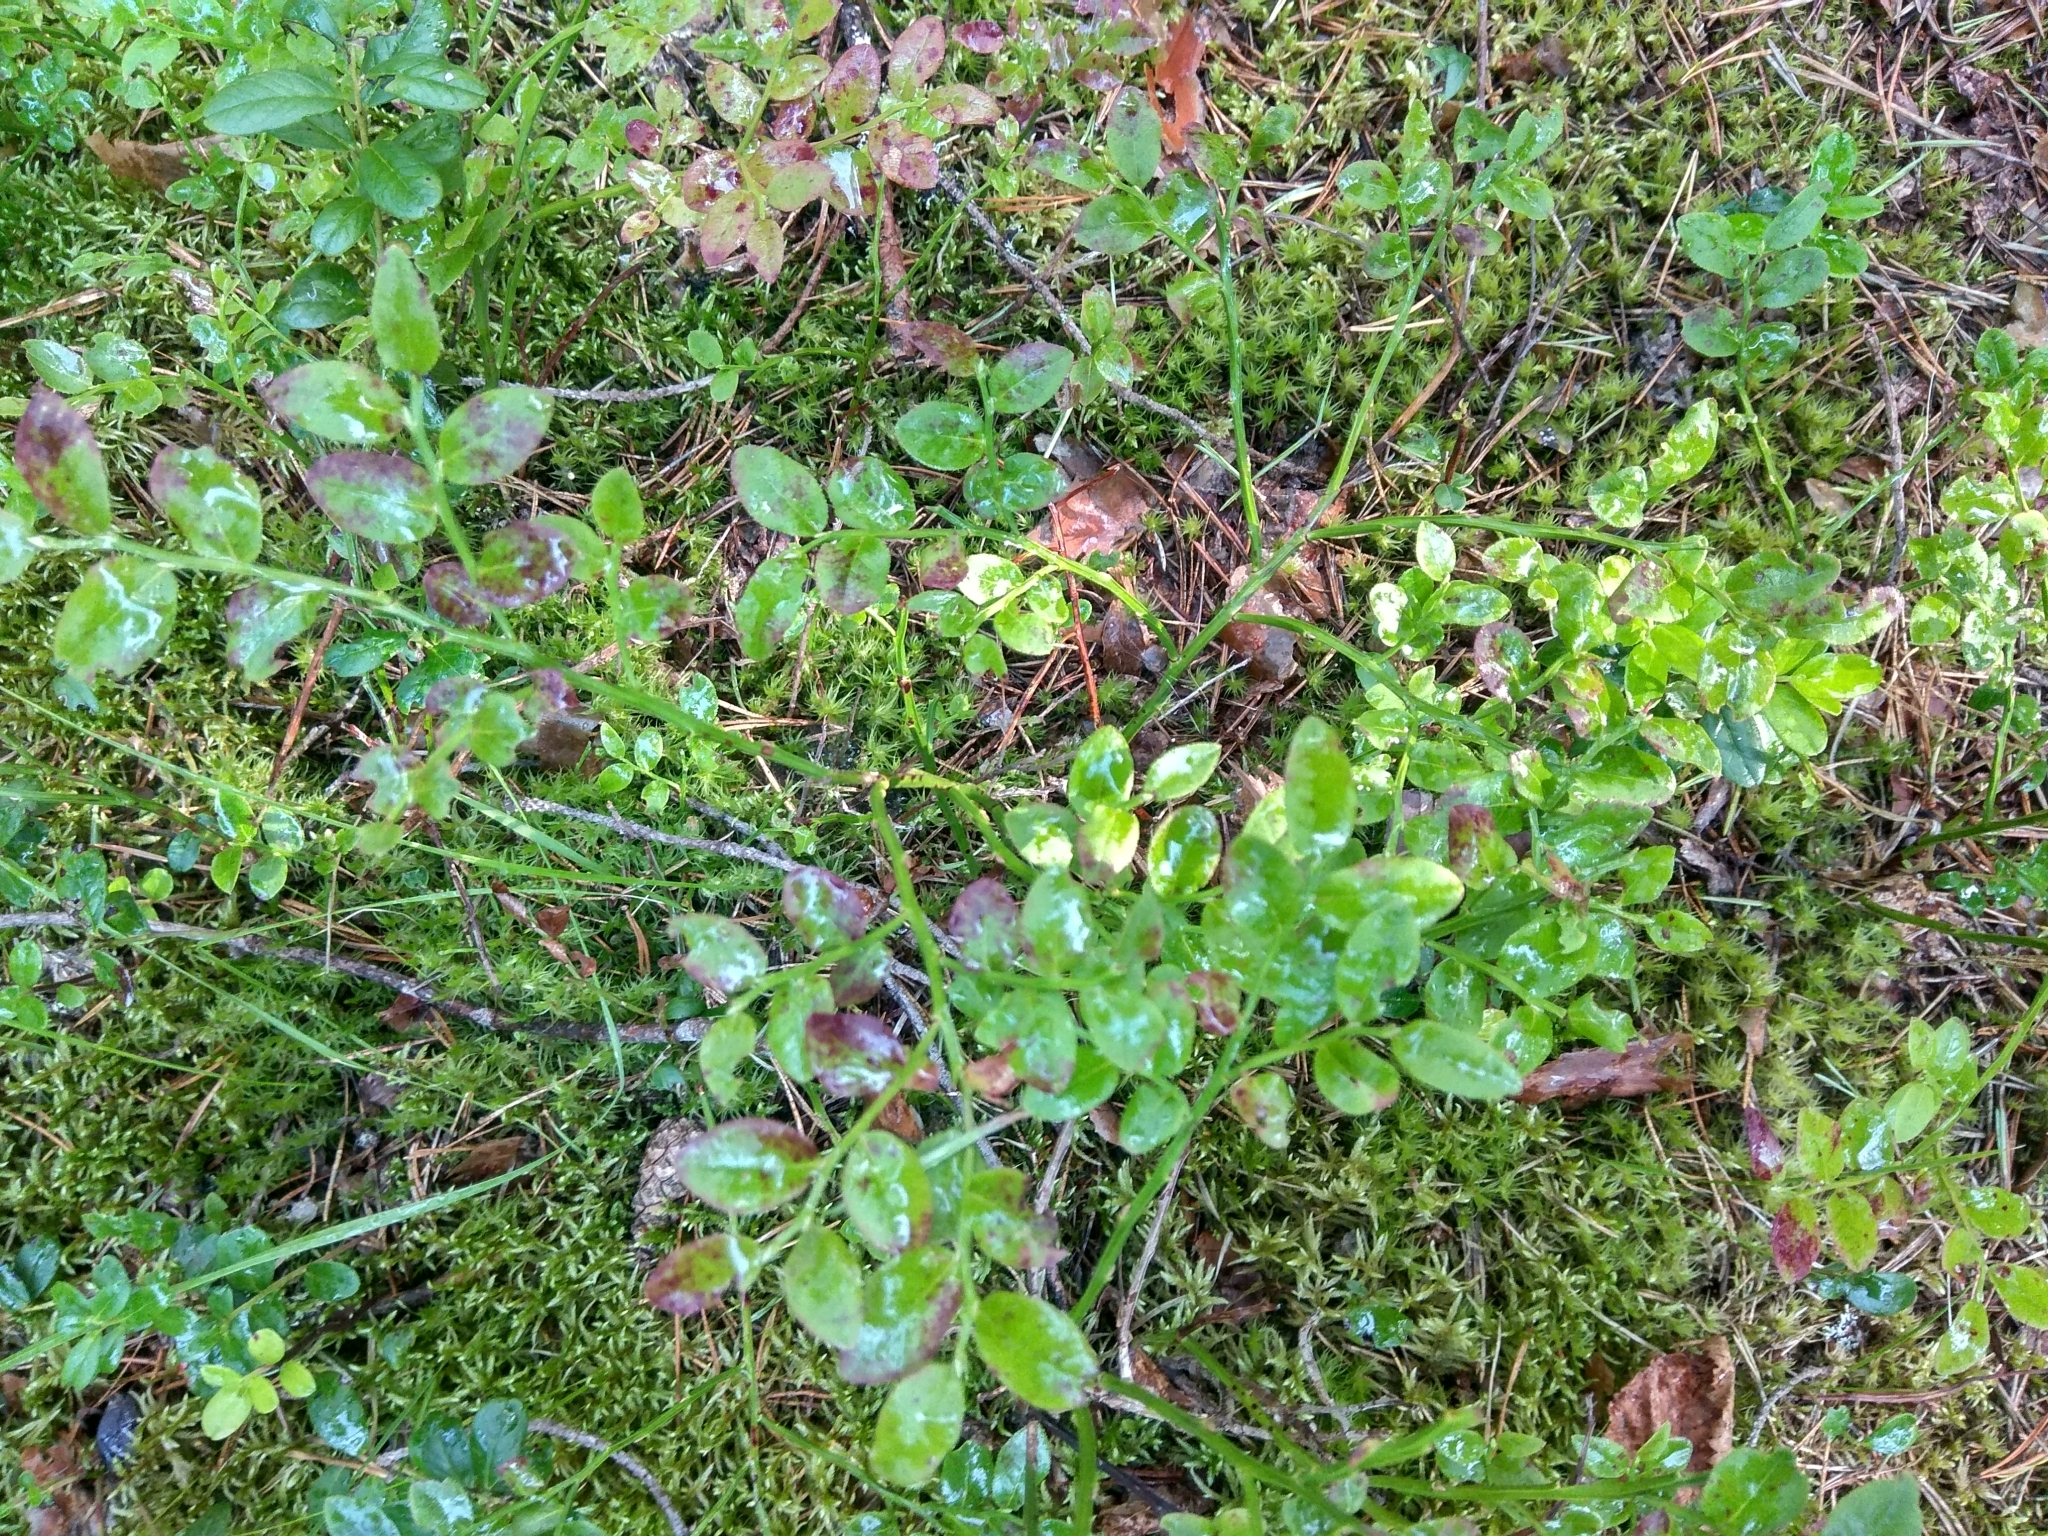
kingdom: Plantae
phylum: Tracheophyta
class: Magnoliopsida
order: Ericales
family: Ericaceae
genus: Vaccinium
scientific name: Vaccinium myrtillus
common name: Bilberry
